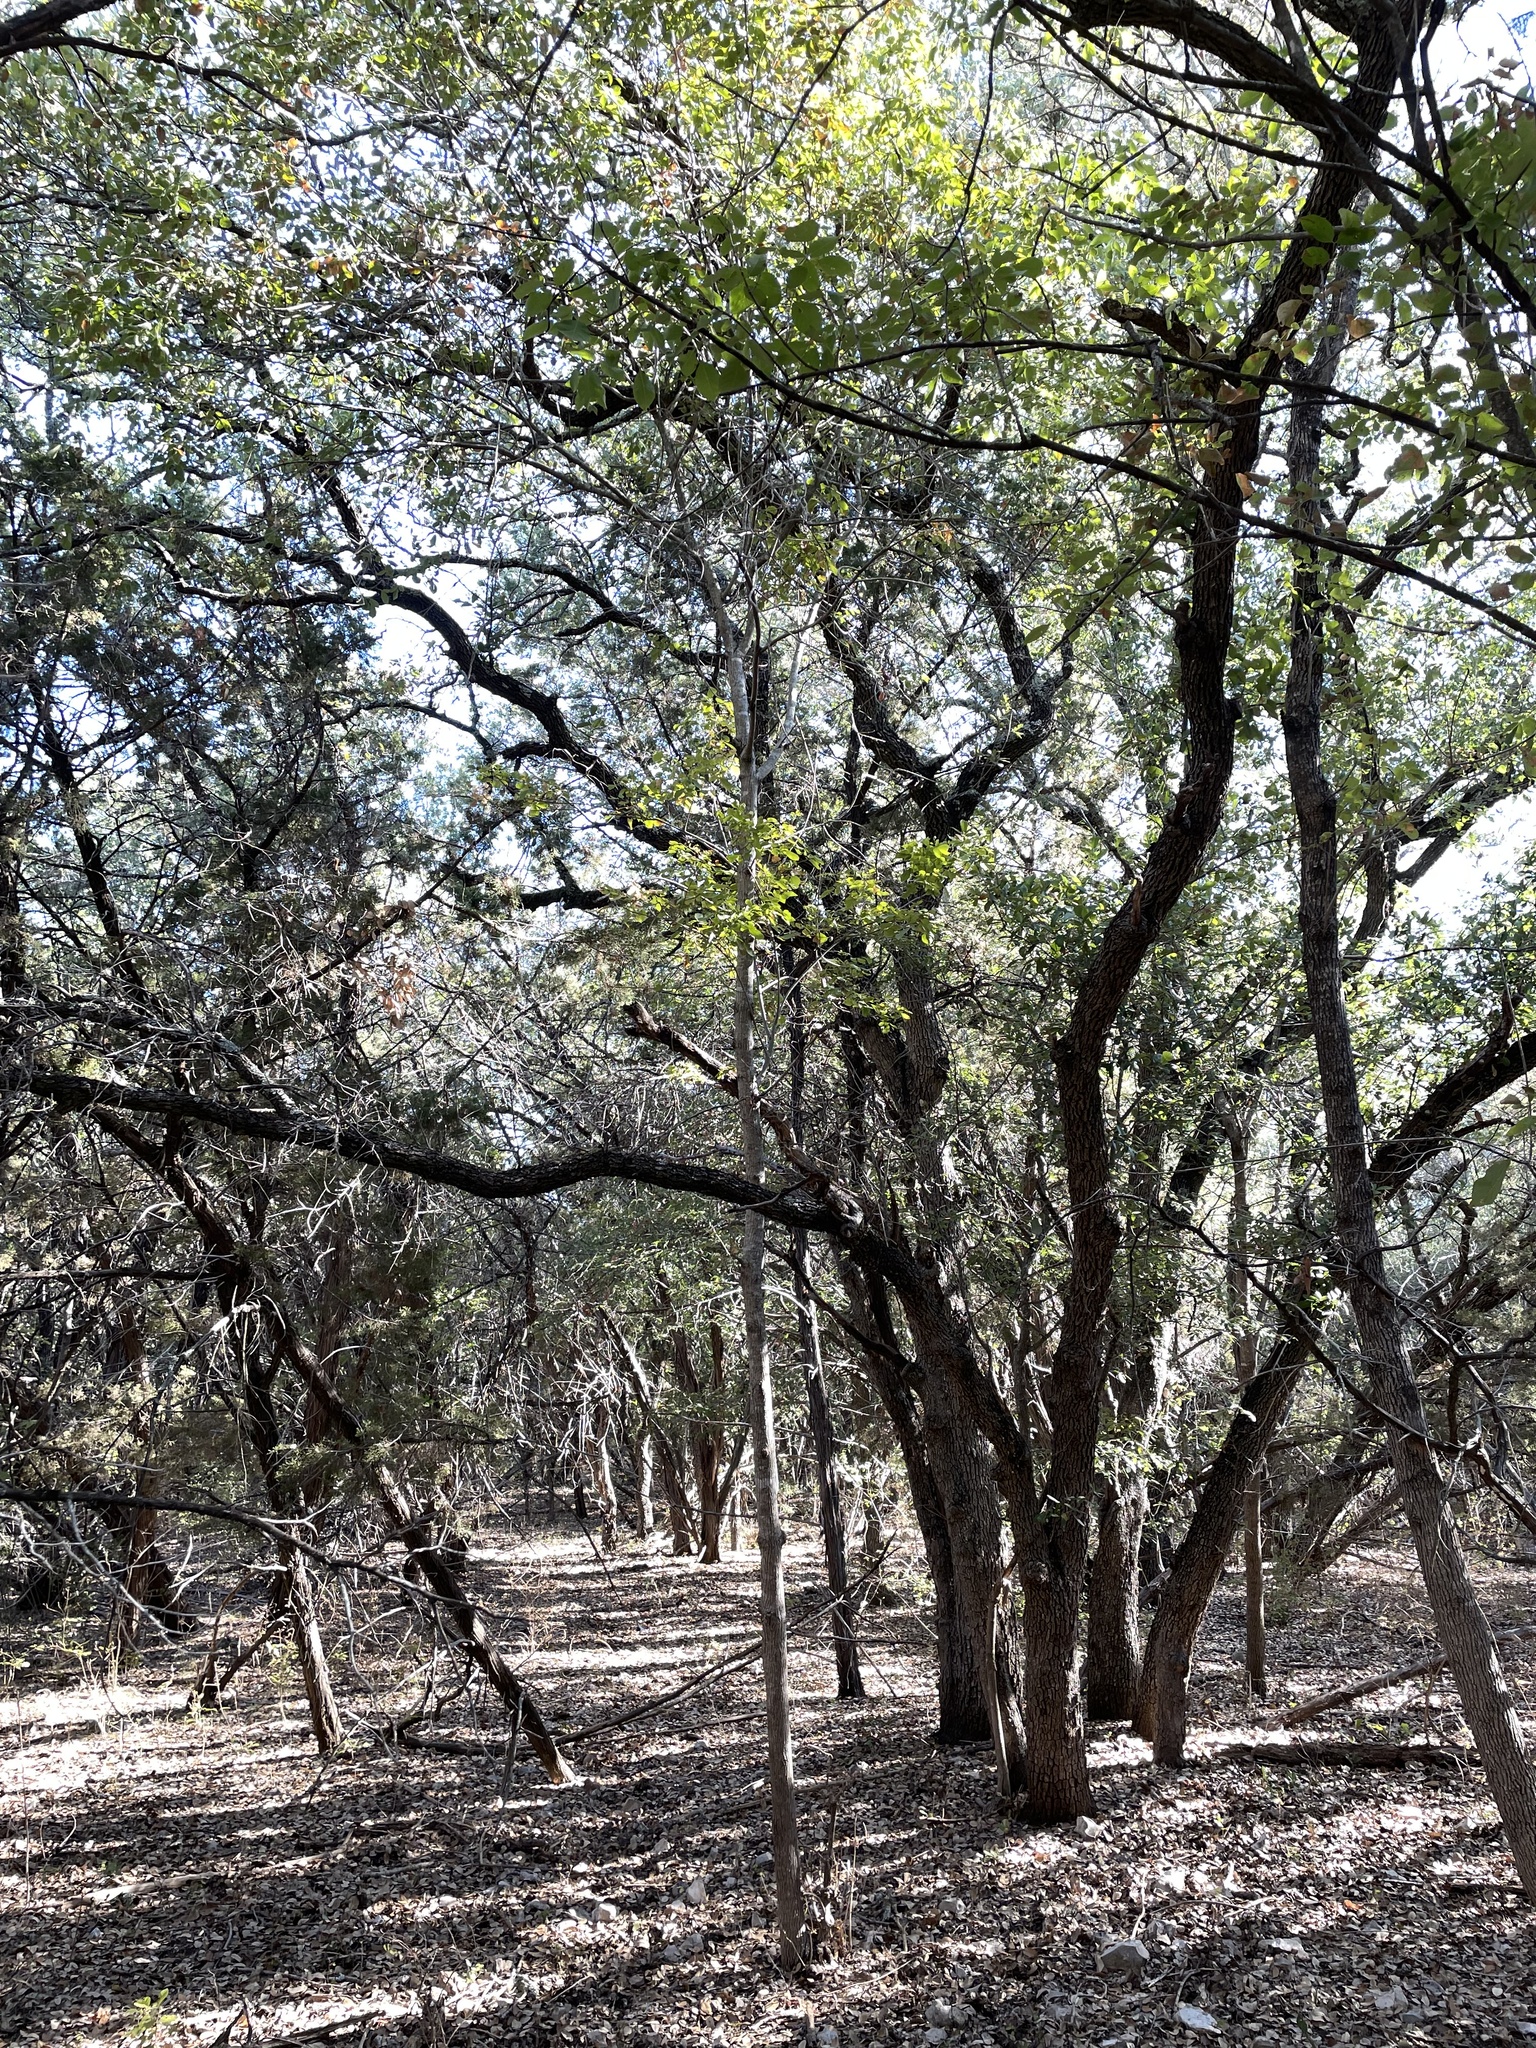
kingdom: Plantae
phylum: Tracheophyta
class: Magnoliopsida
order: Lamiales
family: Oleaceae
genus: Fraxinus
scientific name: Fraxinus albicans
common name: Texas ash
